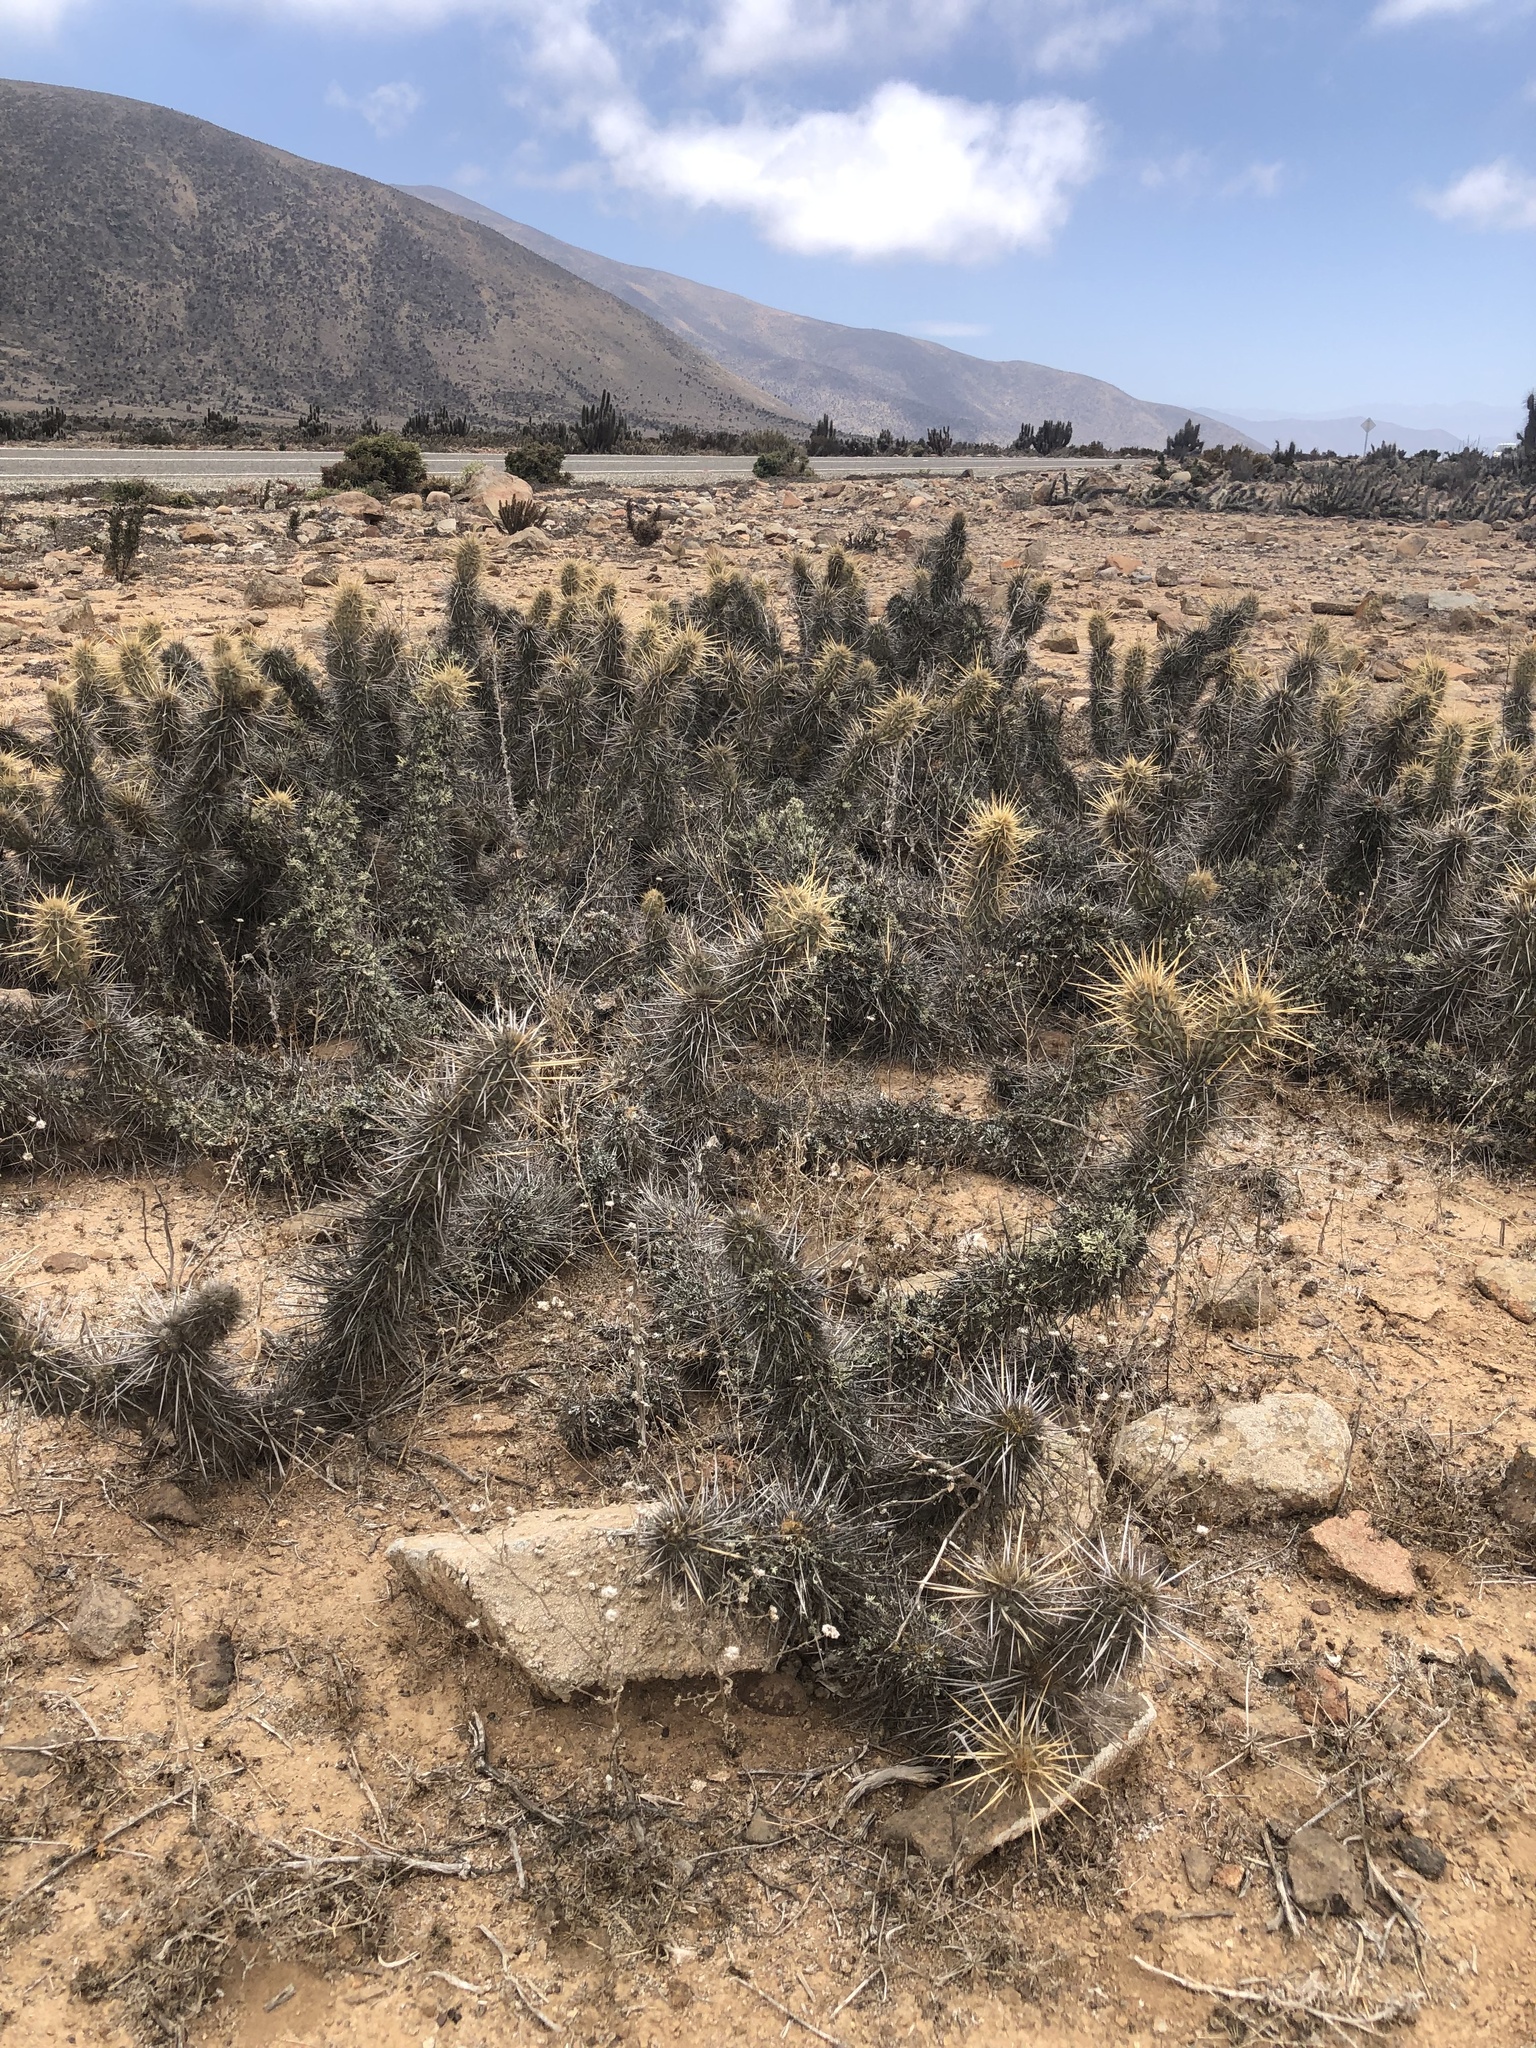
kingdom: Plantae
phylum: Tracheophyta
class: Magnoliopsida
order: Caryophyllales
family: Cactaceae
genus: Miqueliopuntia
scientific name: Miqueliopuntia miquelii
